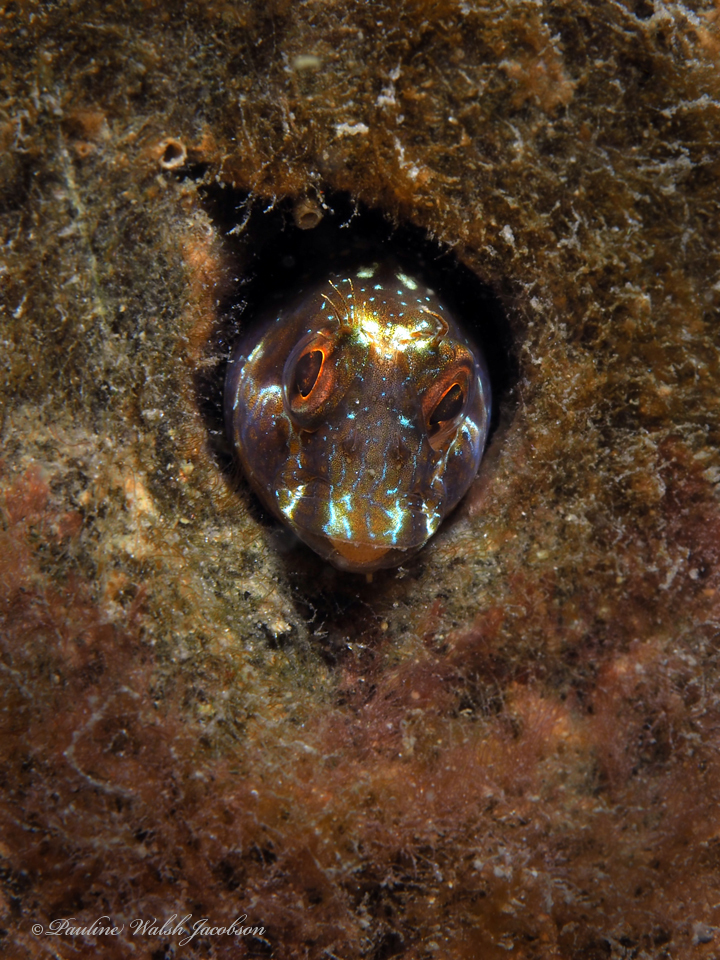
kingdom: Animalia
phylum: Chordata
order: Perciformes
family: Blenniidae
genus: Parablennius
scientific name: Parablennius marmoreus
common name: Seaweed blenny
